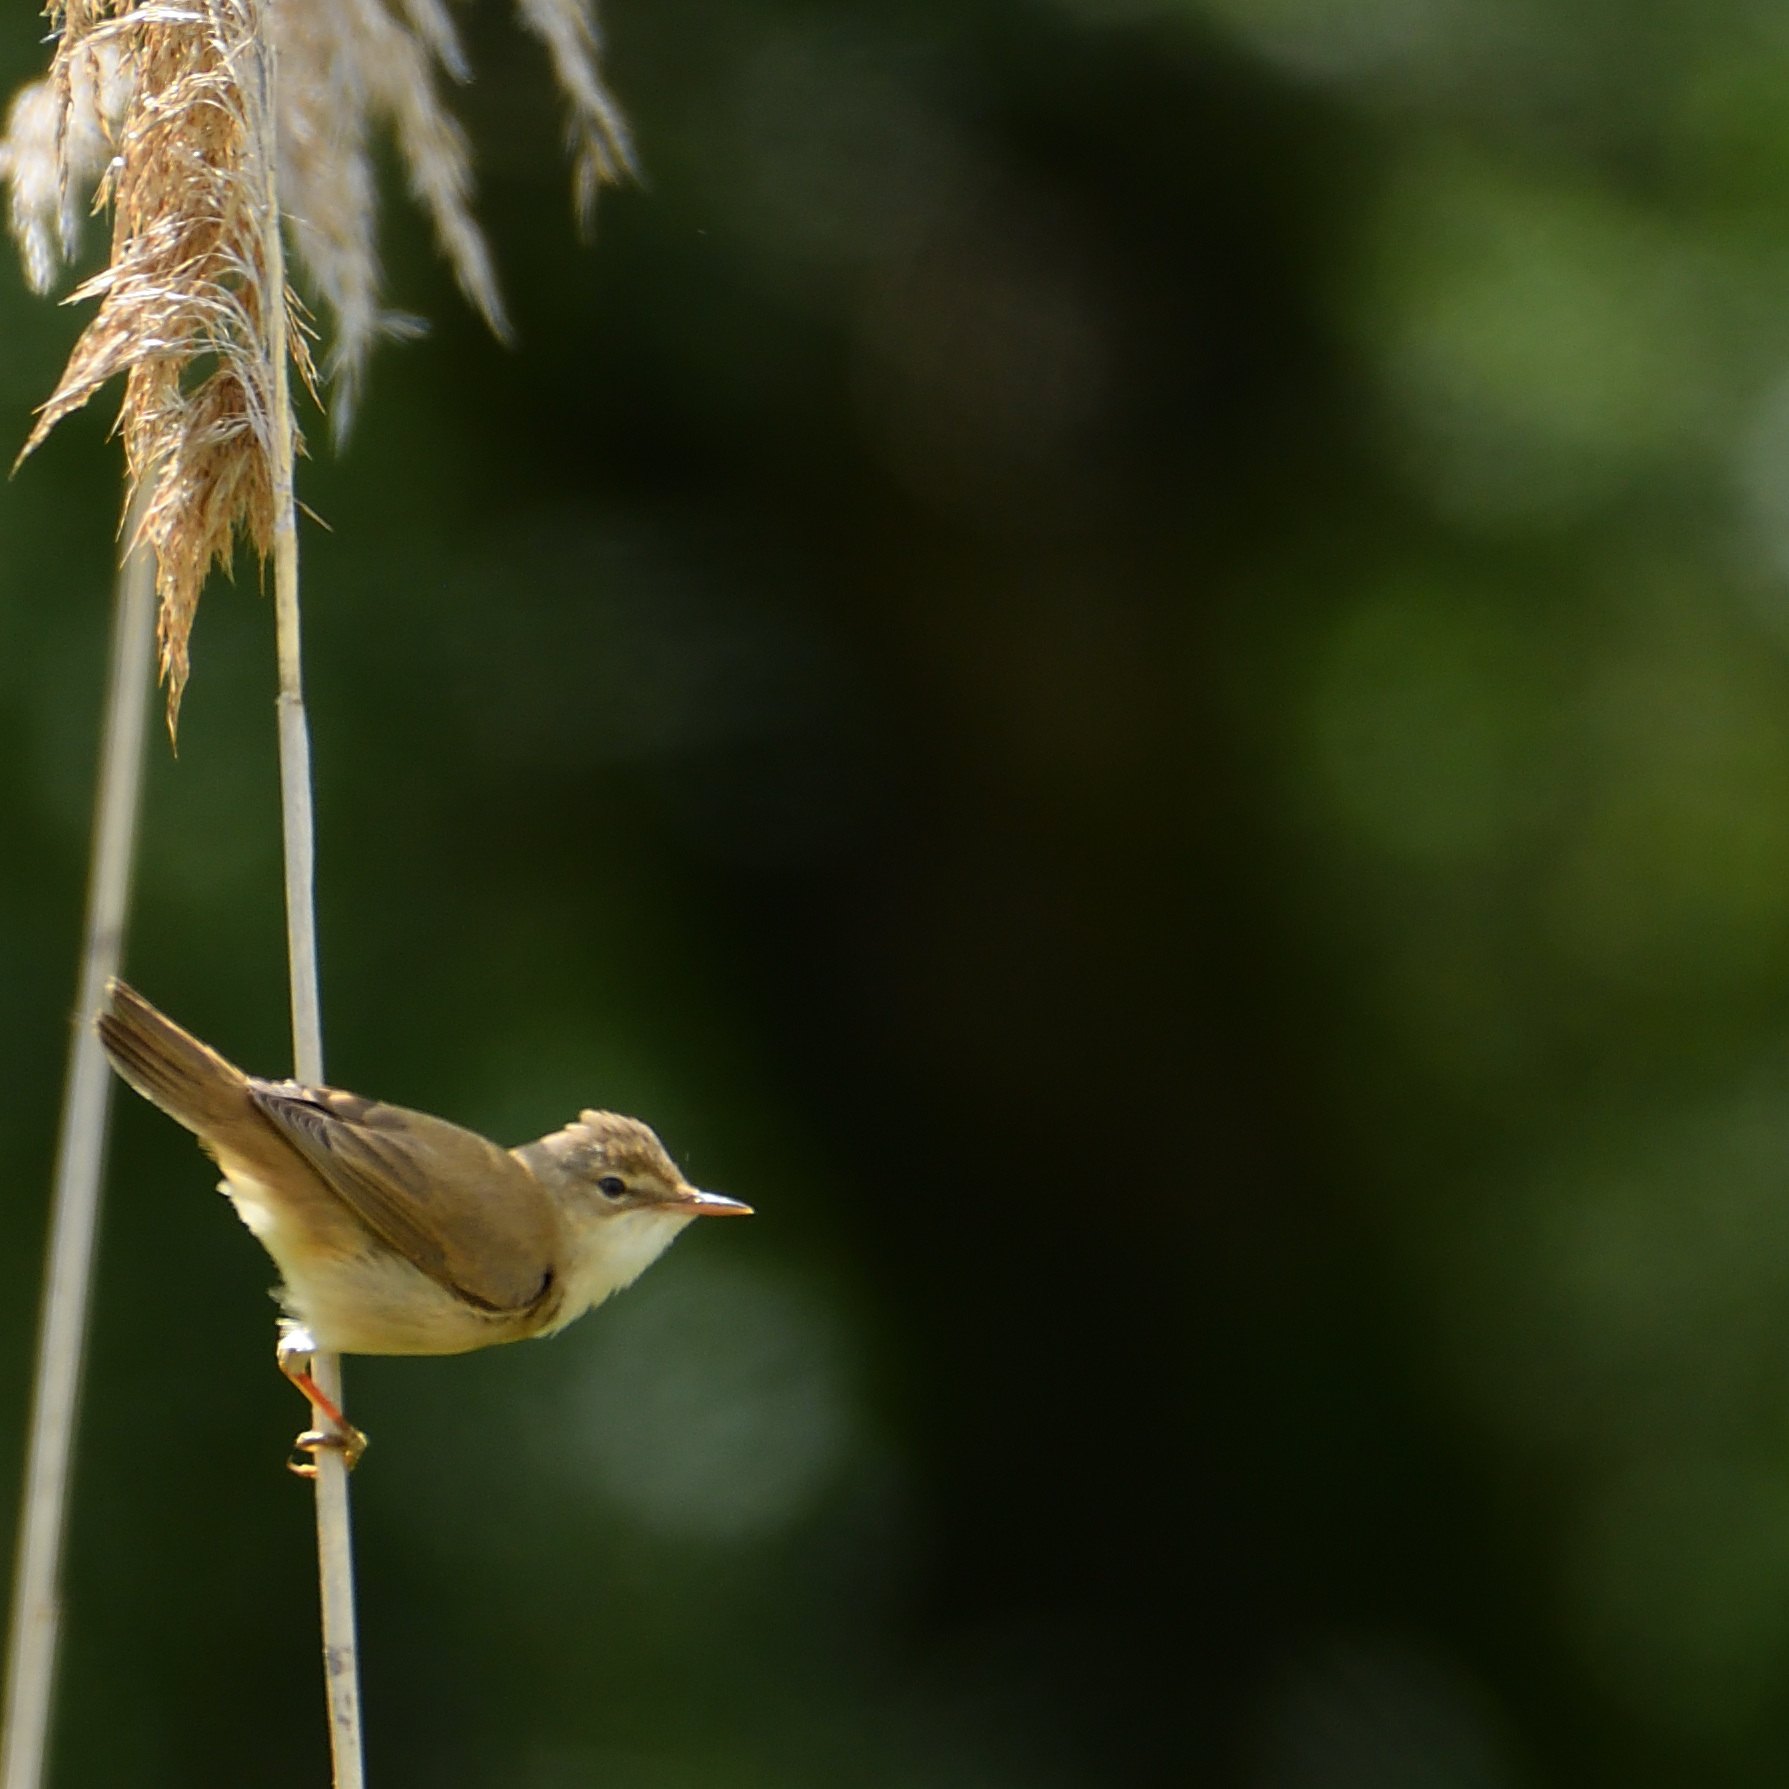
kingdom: Animalia
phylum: Chordata
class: Aves
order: Passeriformes
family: Acrocephalidae
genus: Acrocephalus
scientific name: Acrocephalus scirpaceus
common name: Eurasian reed warbler
